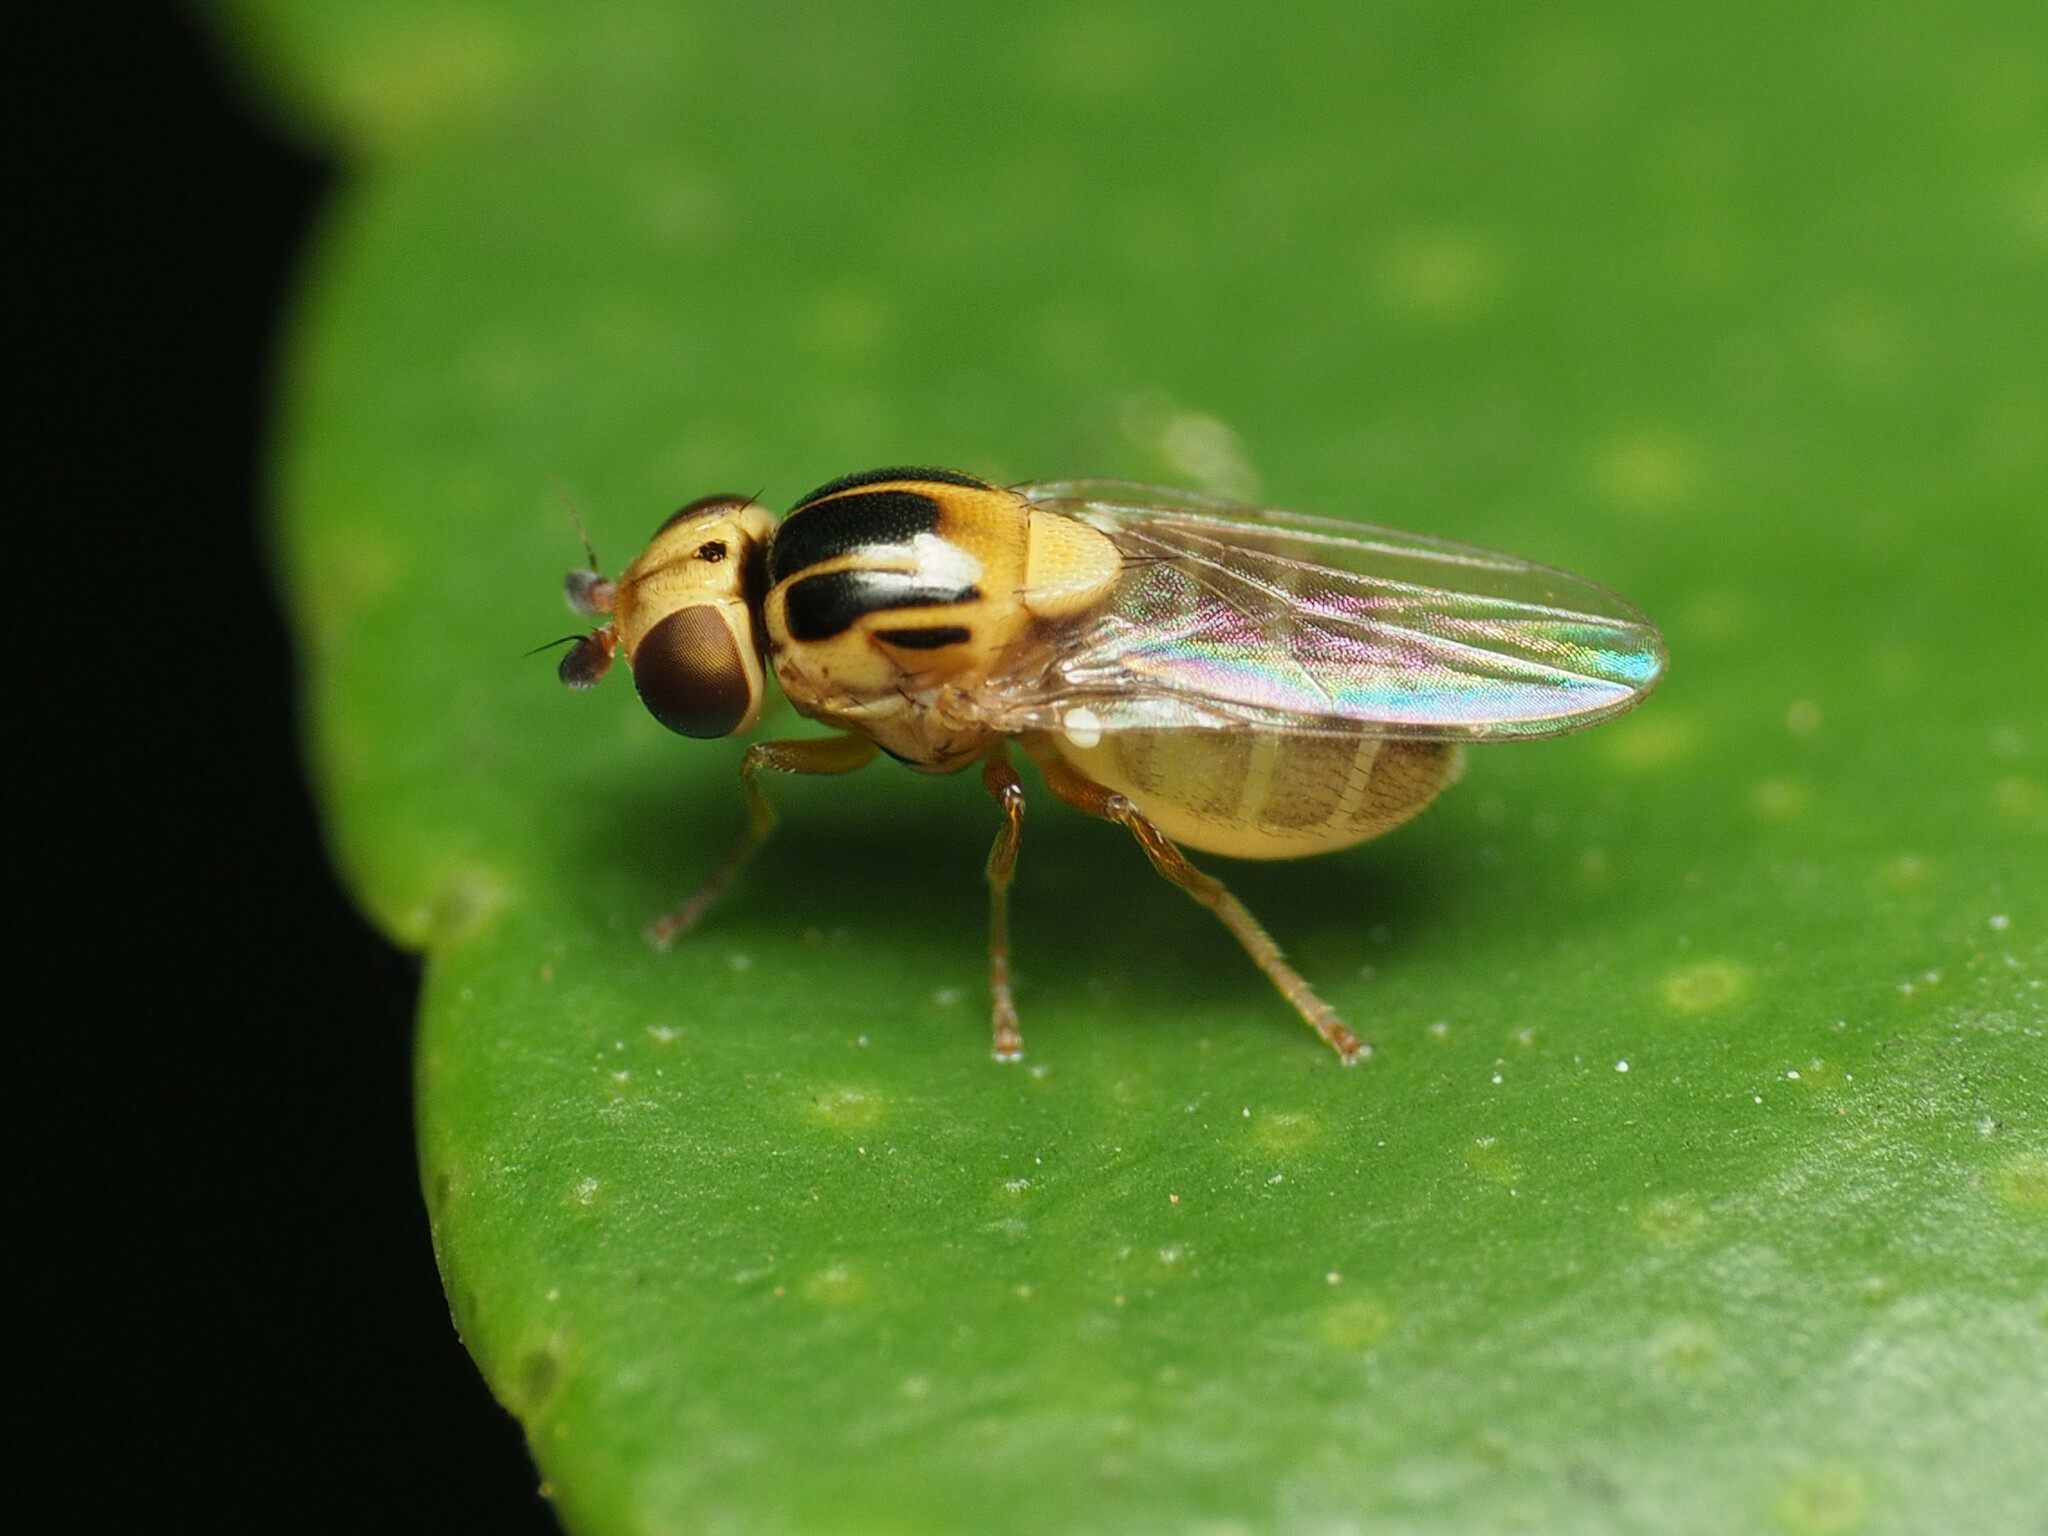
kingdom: Animalia
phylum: Arthropoda
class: Insecta
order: Diptera
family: Chloropidae
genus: Thaumatomyia
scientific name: Thaumatomyia notata
